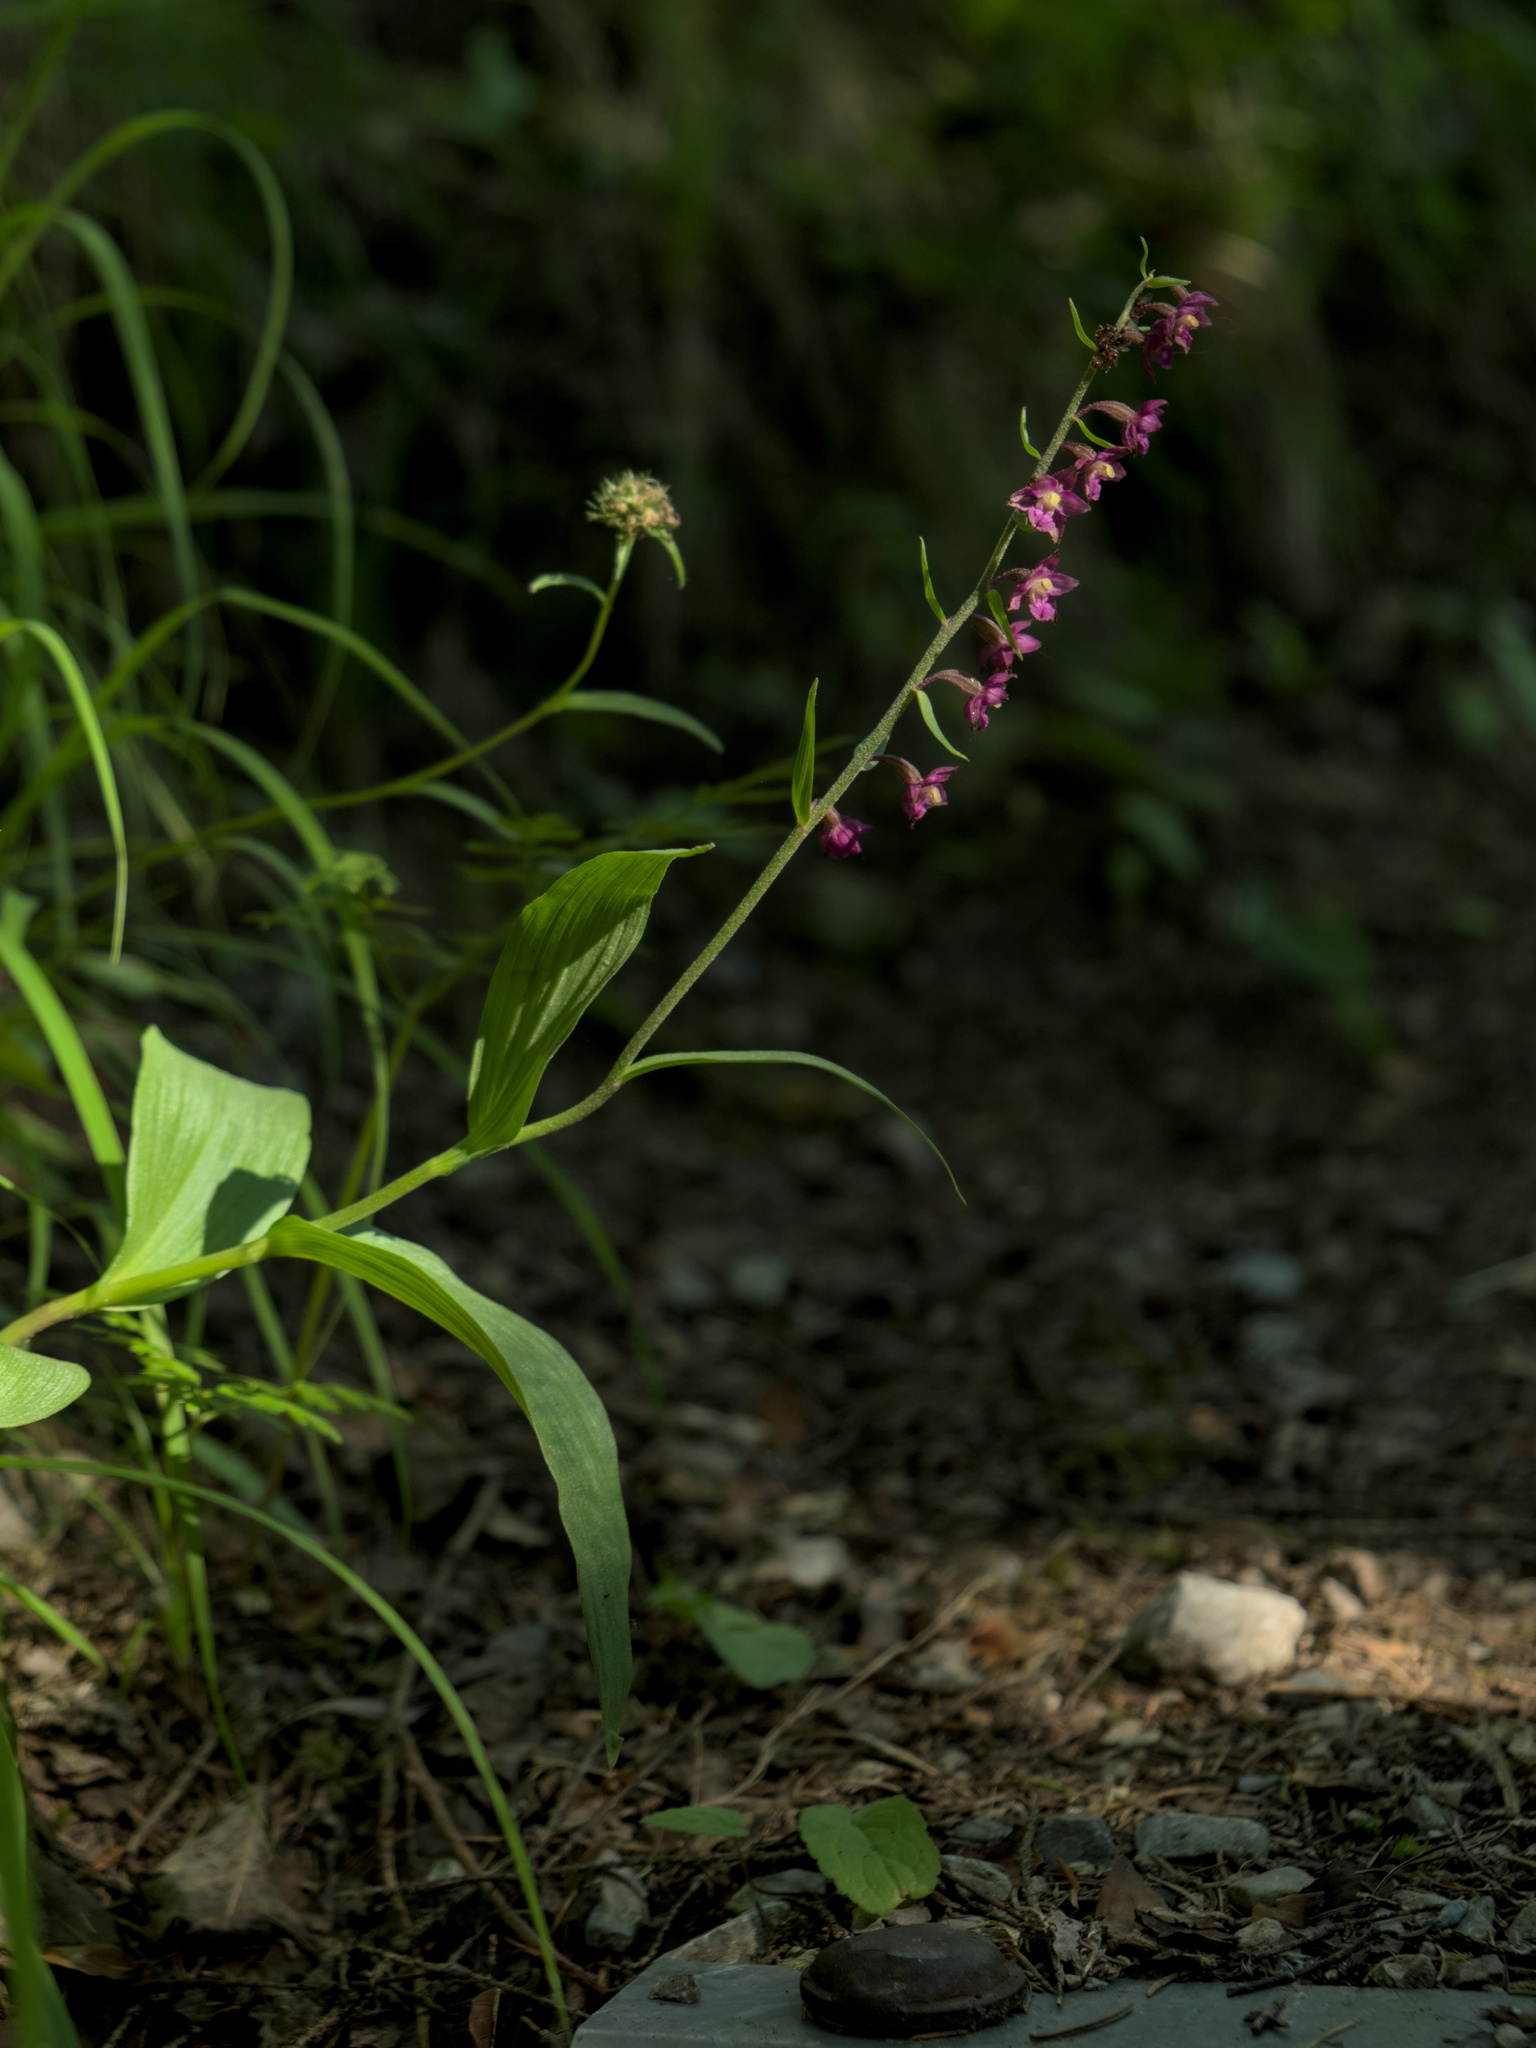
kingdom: Plantae
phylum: Tracheophyta
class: Liliopsida
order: Asparagales
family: Orchidaceae
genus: Epipactis
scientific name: Epipactis atrorubens
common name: Dark-red helleborine
